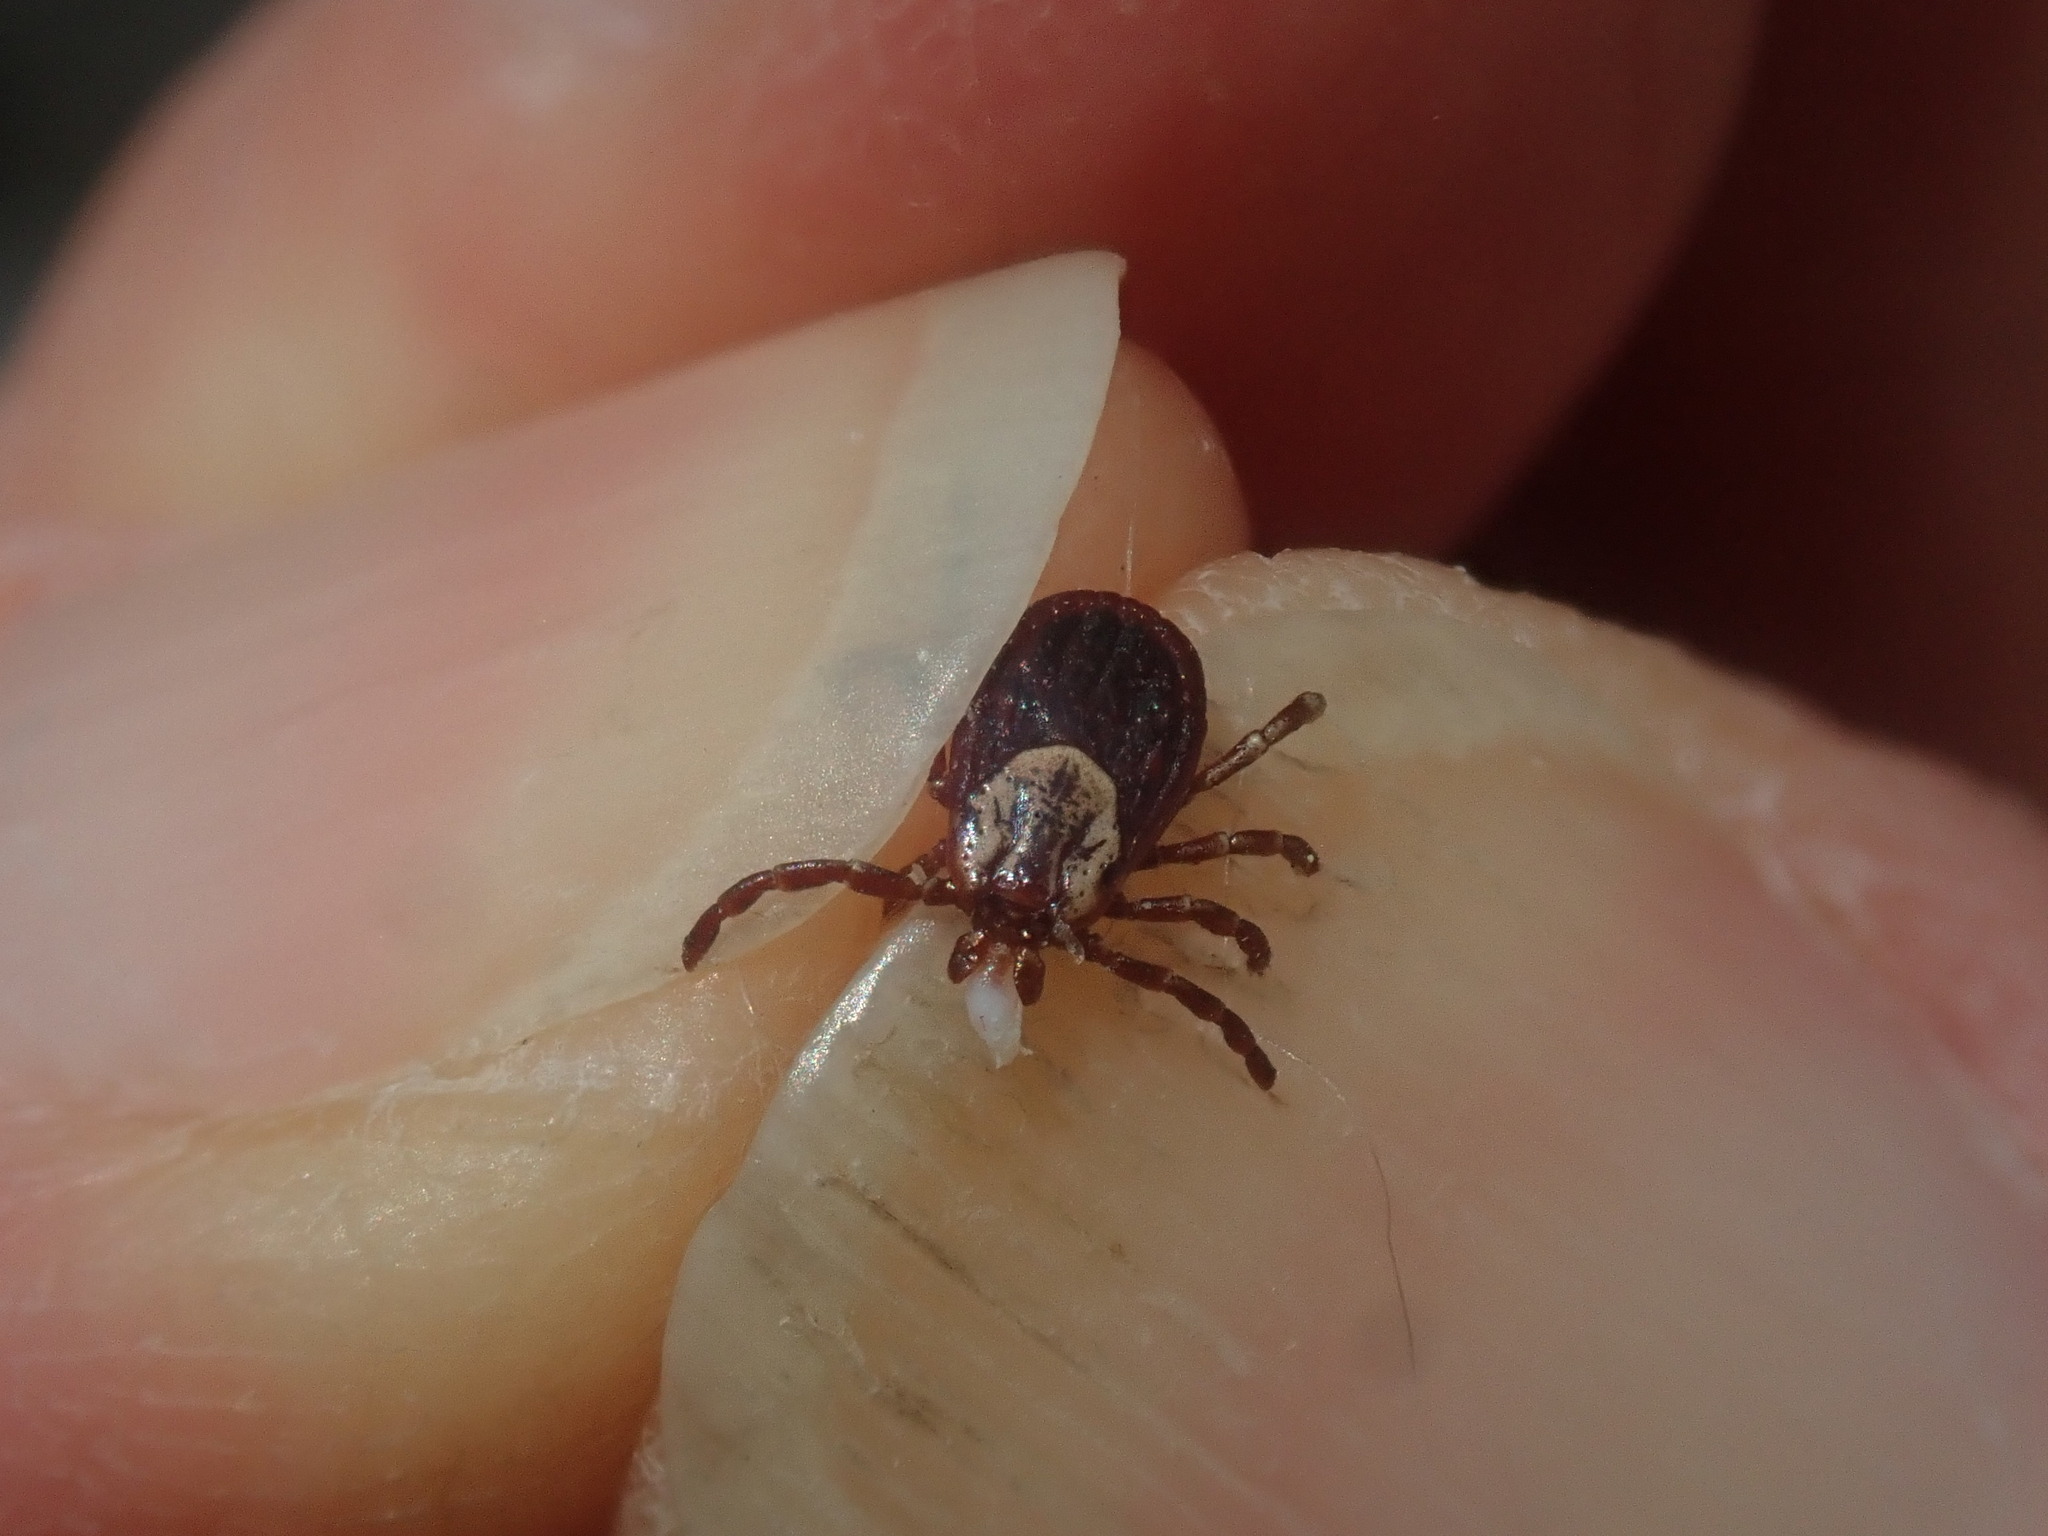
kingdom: Animalia
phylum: Arthropoda
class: Arachnida
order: Ixodida
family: Ixodidae
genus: Dermacentor
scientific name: Dermacentor variabilis
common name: American dog tick
